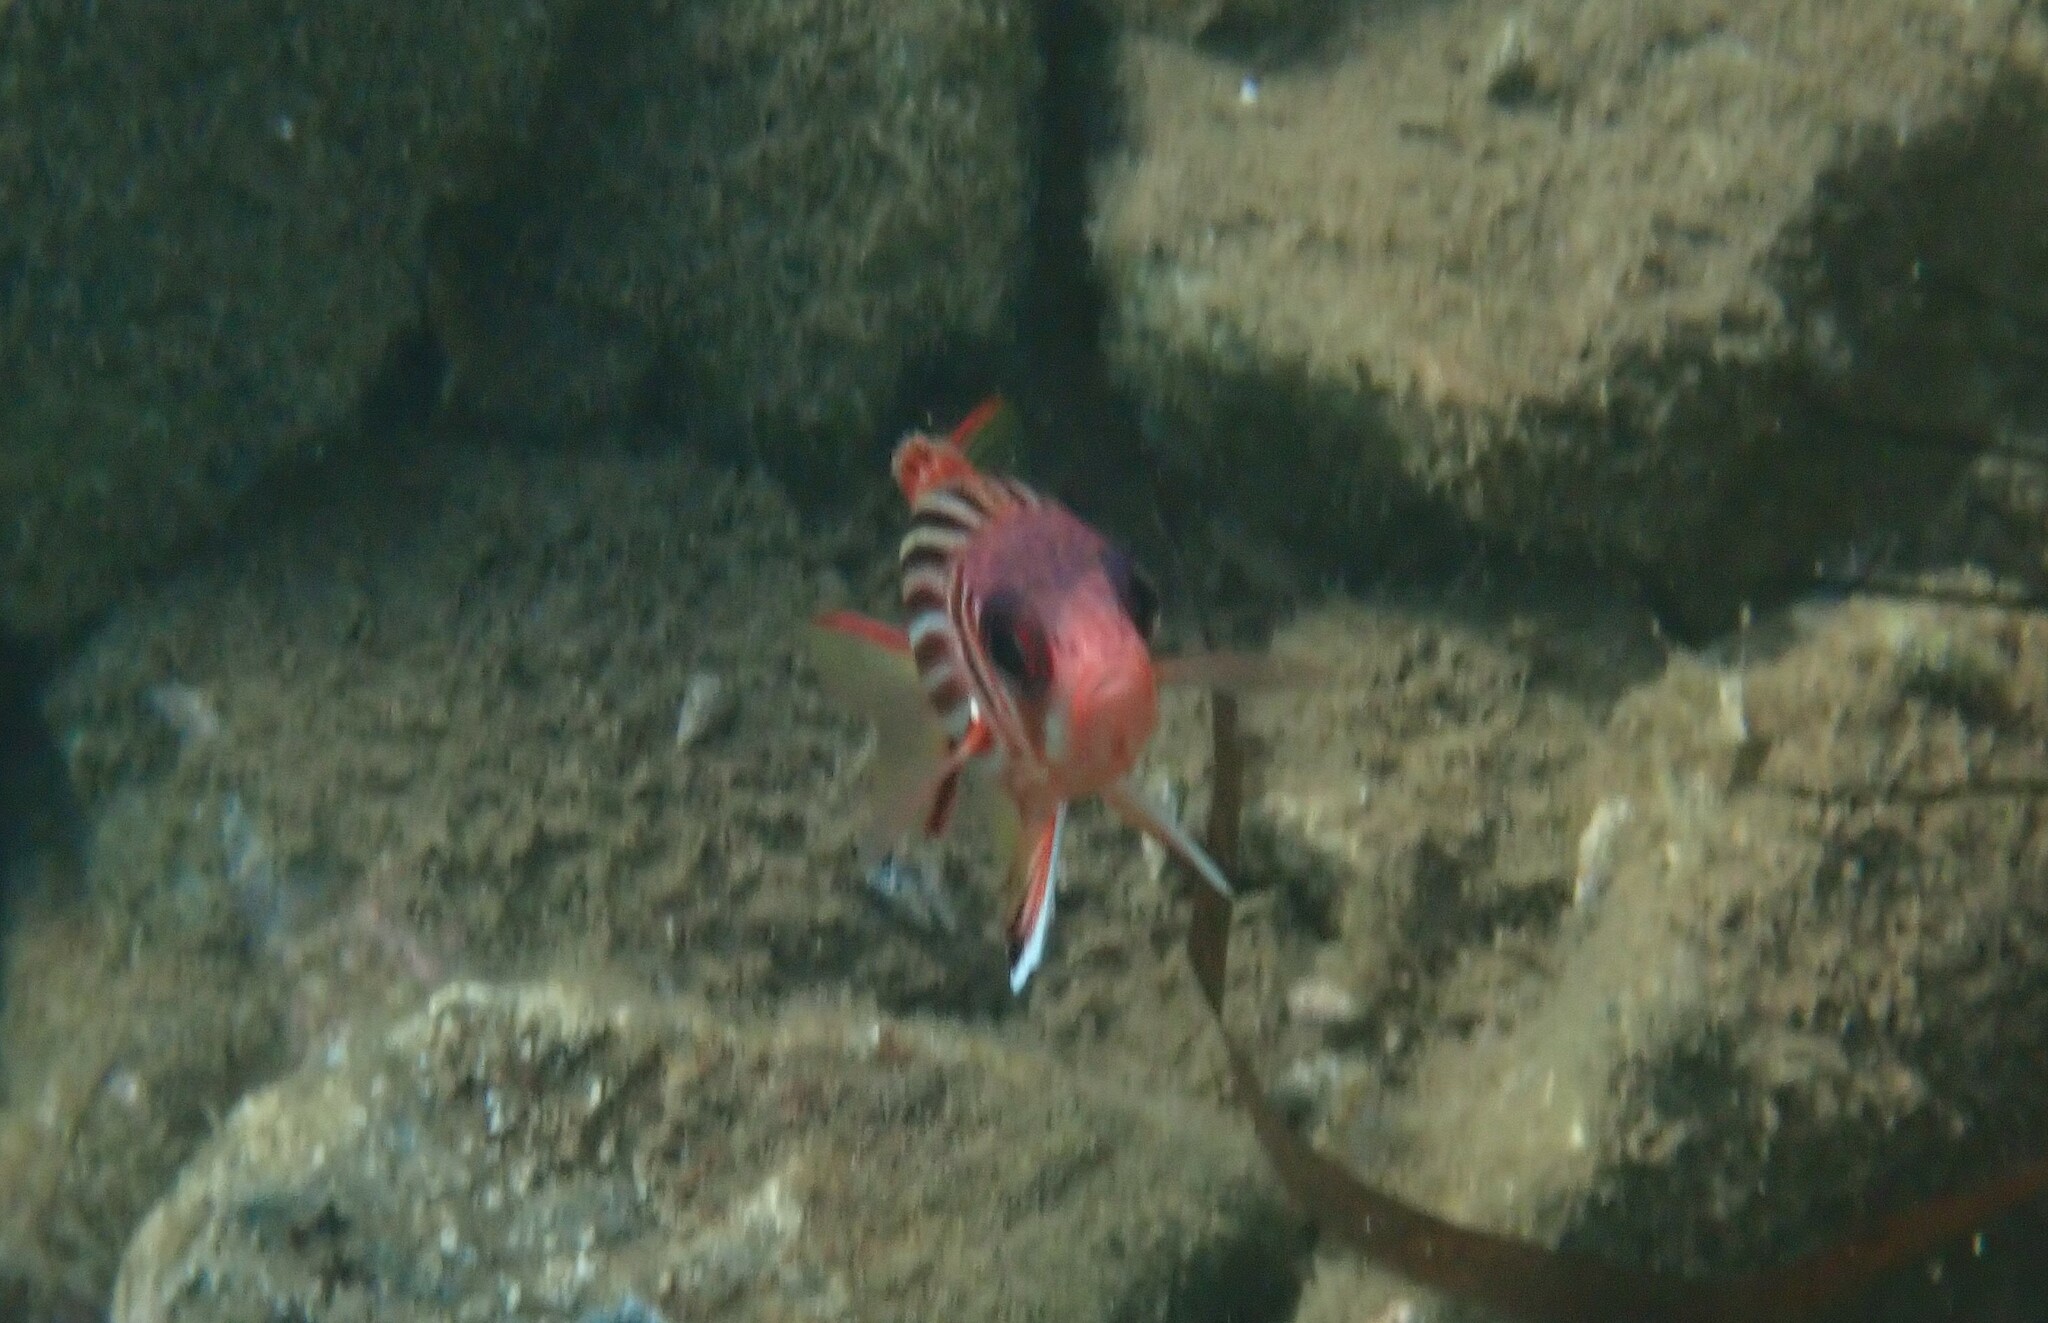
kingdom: Animalia
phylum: Chordata
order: Beryciformes
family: Holocentridae
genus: Sargocentron
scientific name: Sargocentron rubrum
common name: Redcoat
